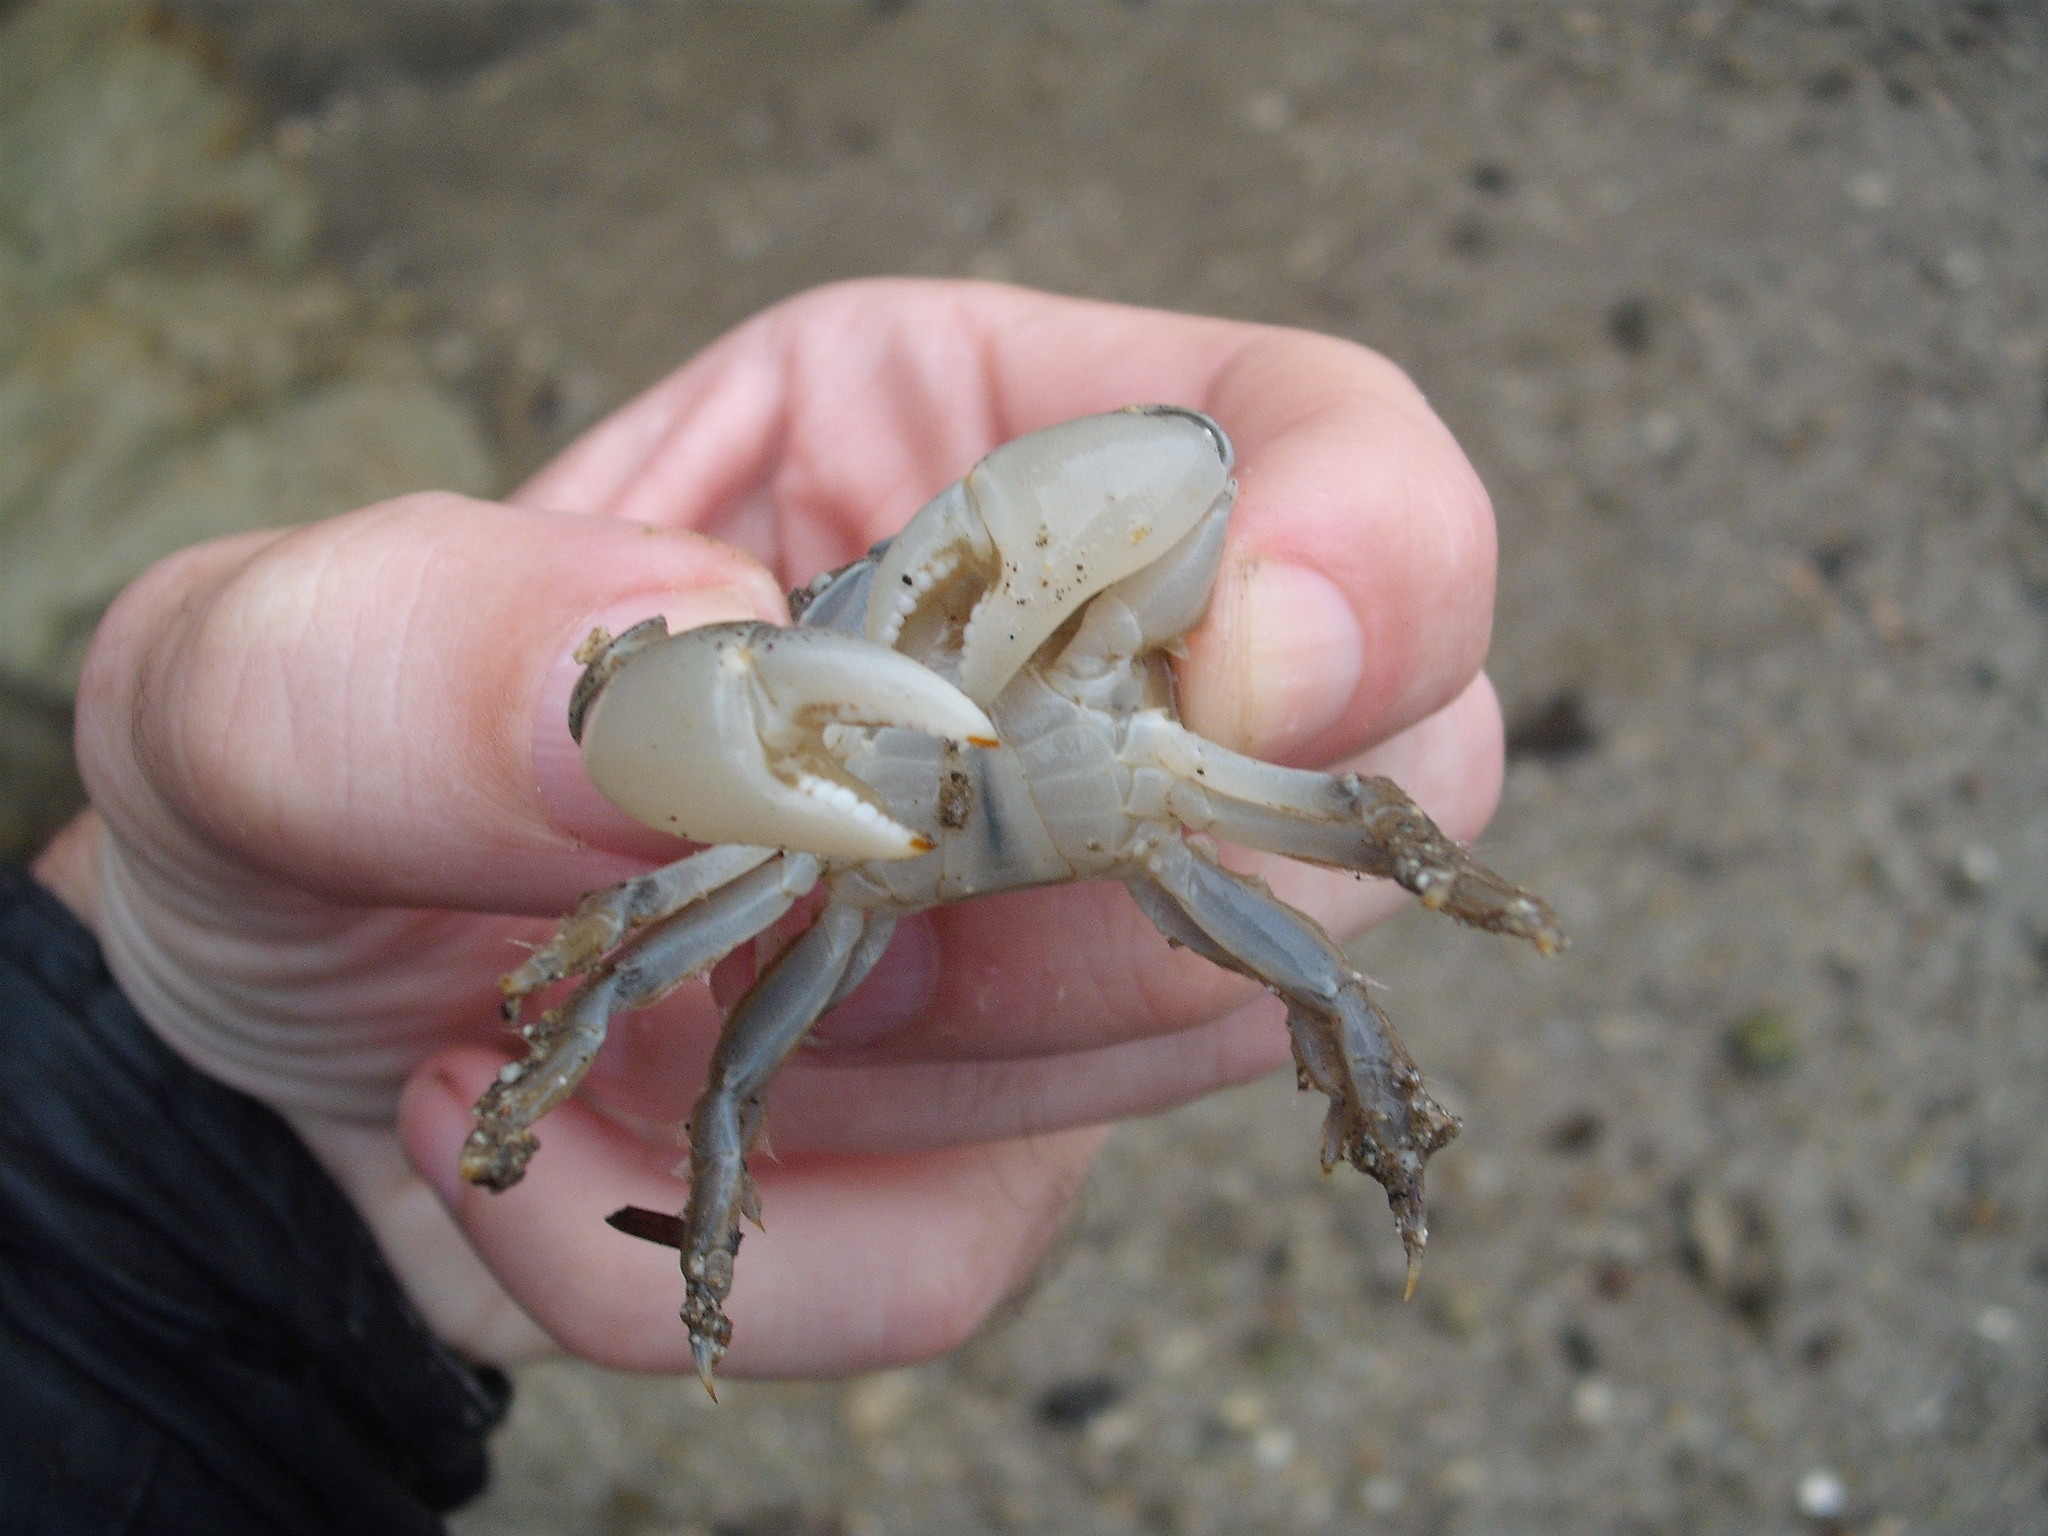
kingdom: Animalia
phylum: Arthropoda
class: Malacostraca
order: Decapoda
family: Varunidae
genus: Hemigrapsus
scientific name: Hemigrapsus crenulatus
